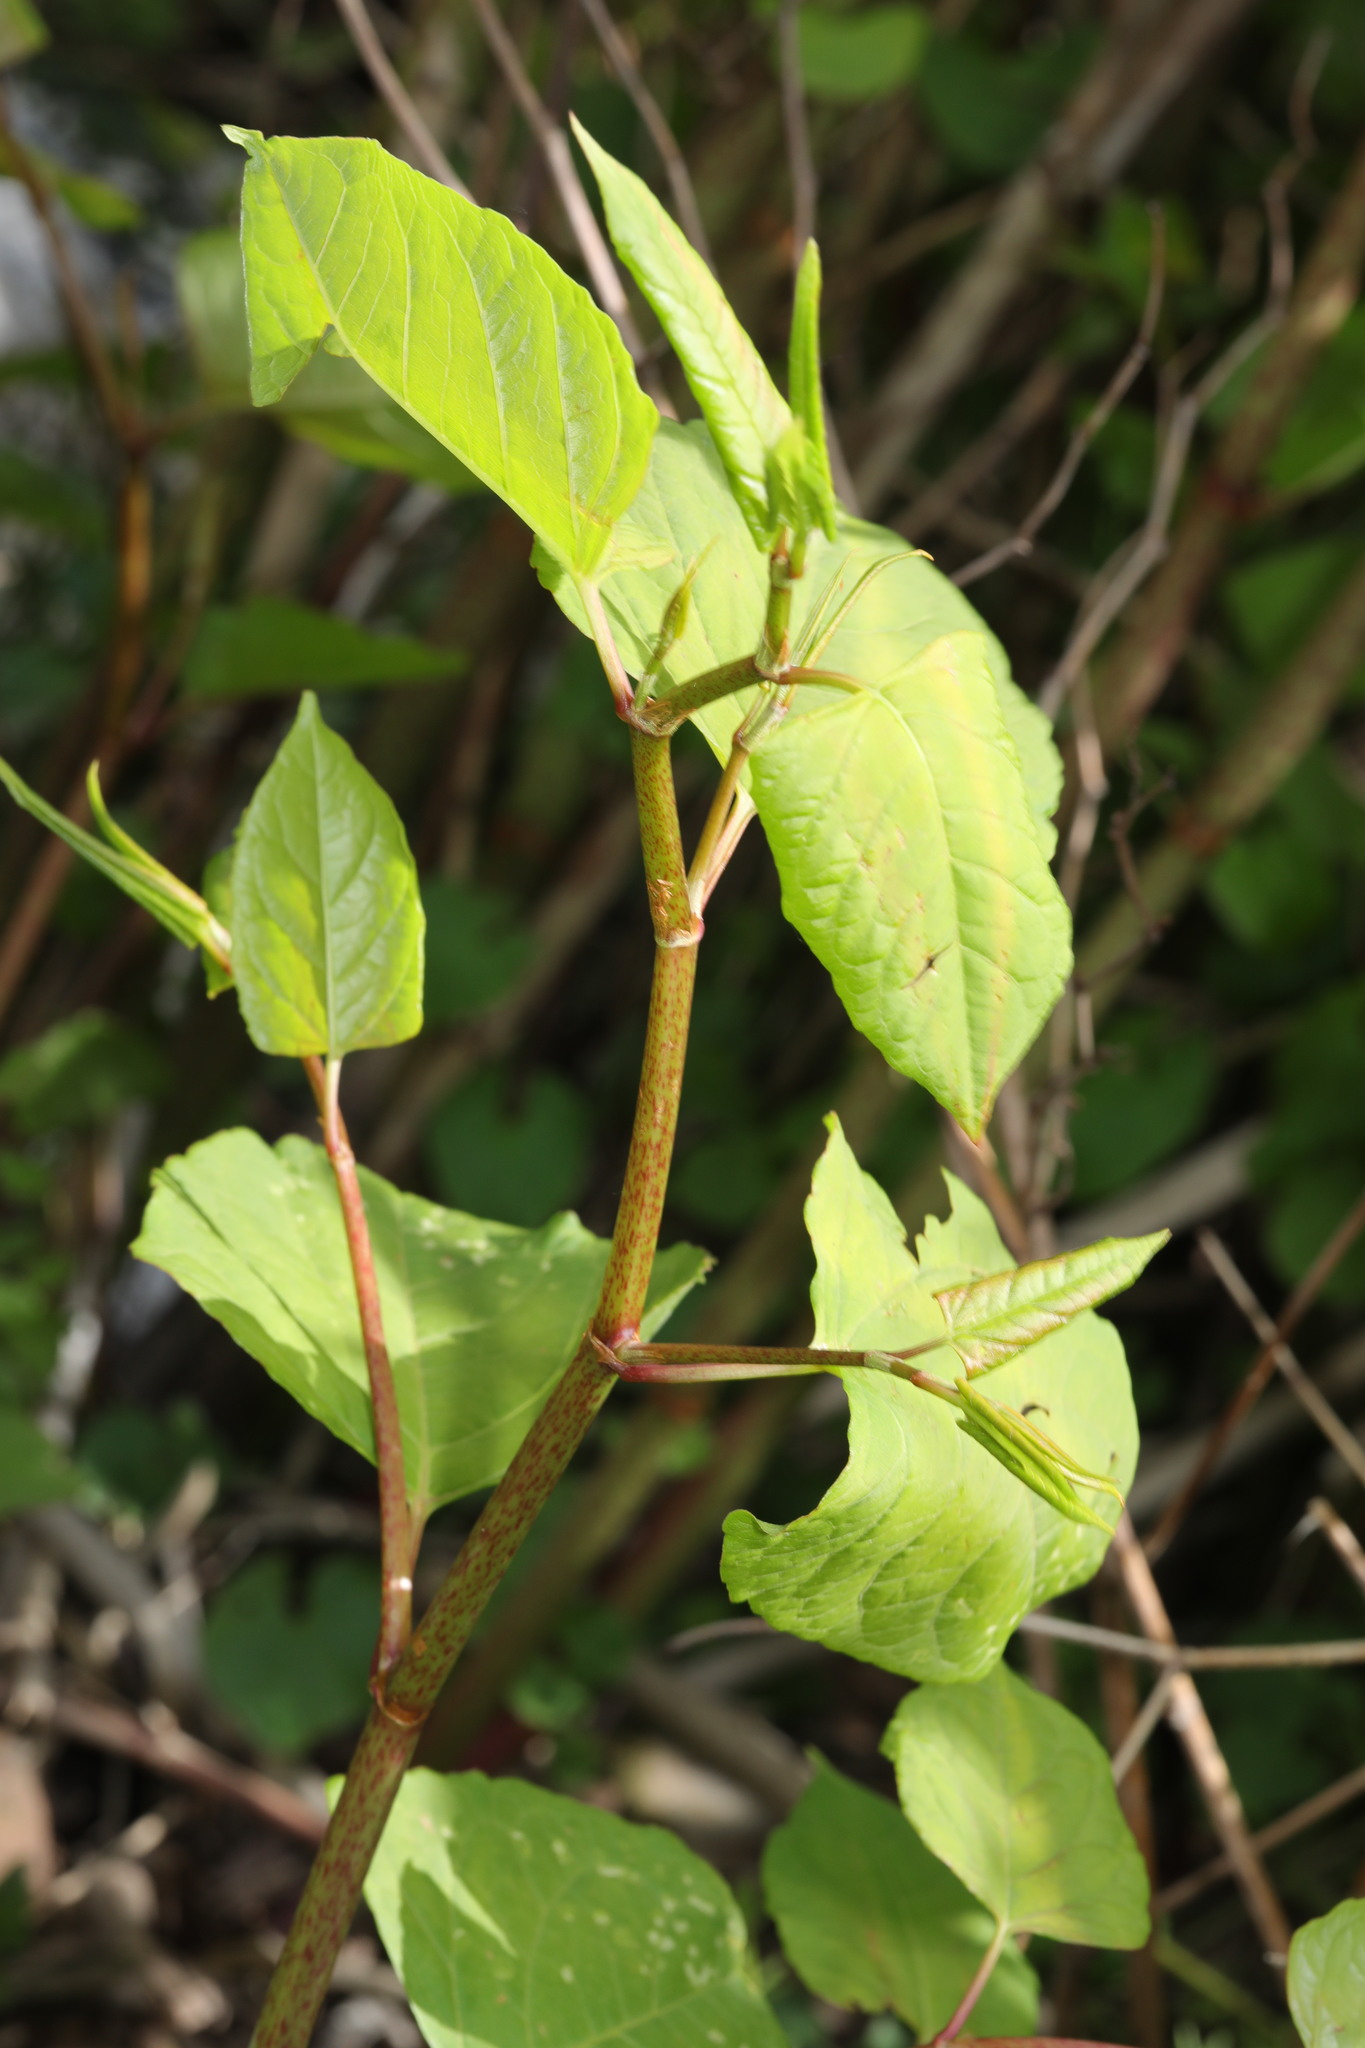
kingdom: Plantae
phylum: Tracheophyta
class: Magnoliopsida
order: Caryophyllales
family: Polygonaceae
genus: Reynoutria
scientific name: Reynoutria japonica
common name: Japanese knotweed
